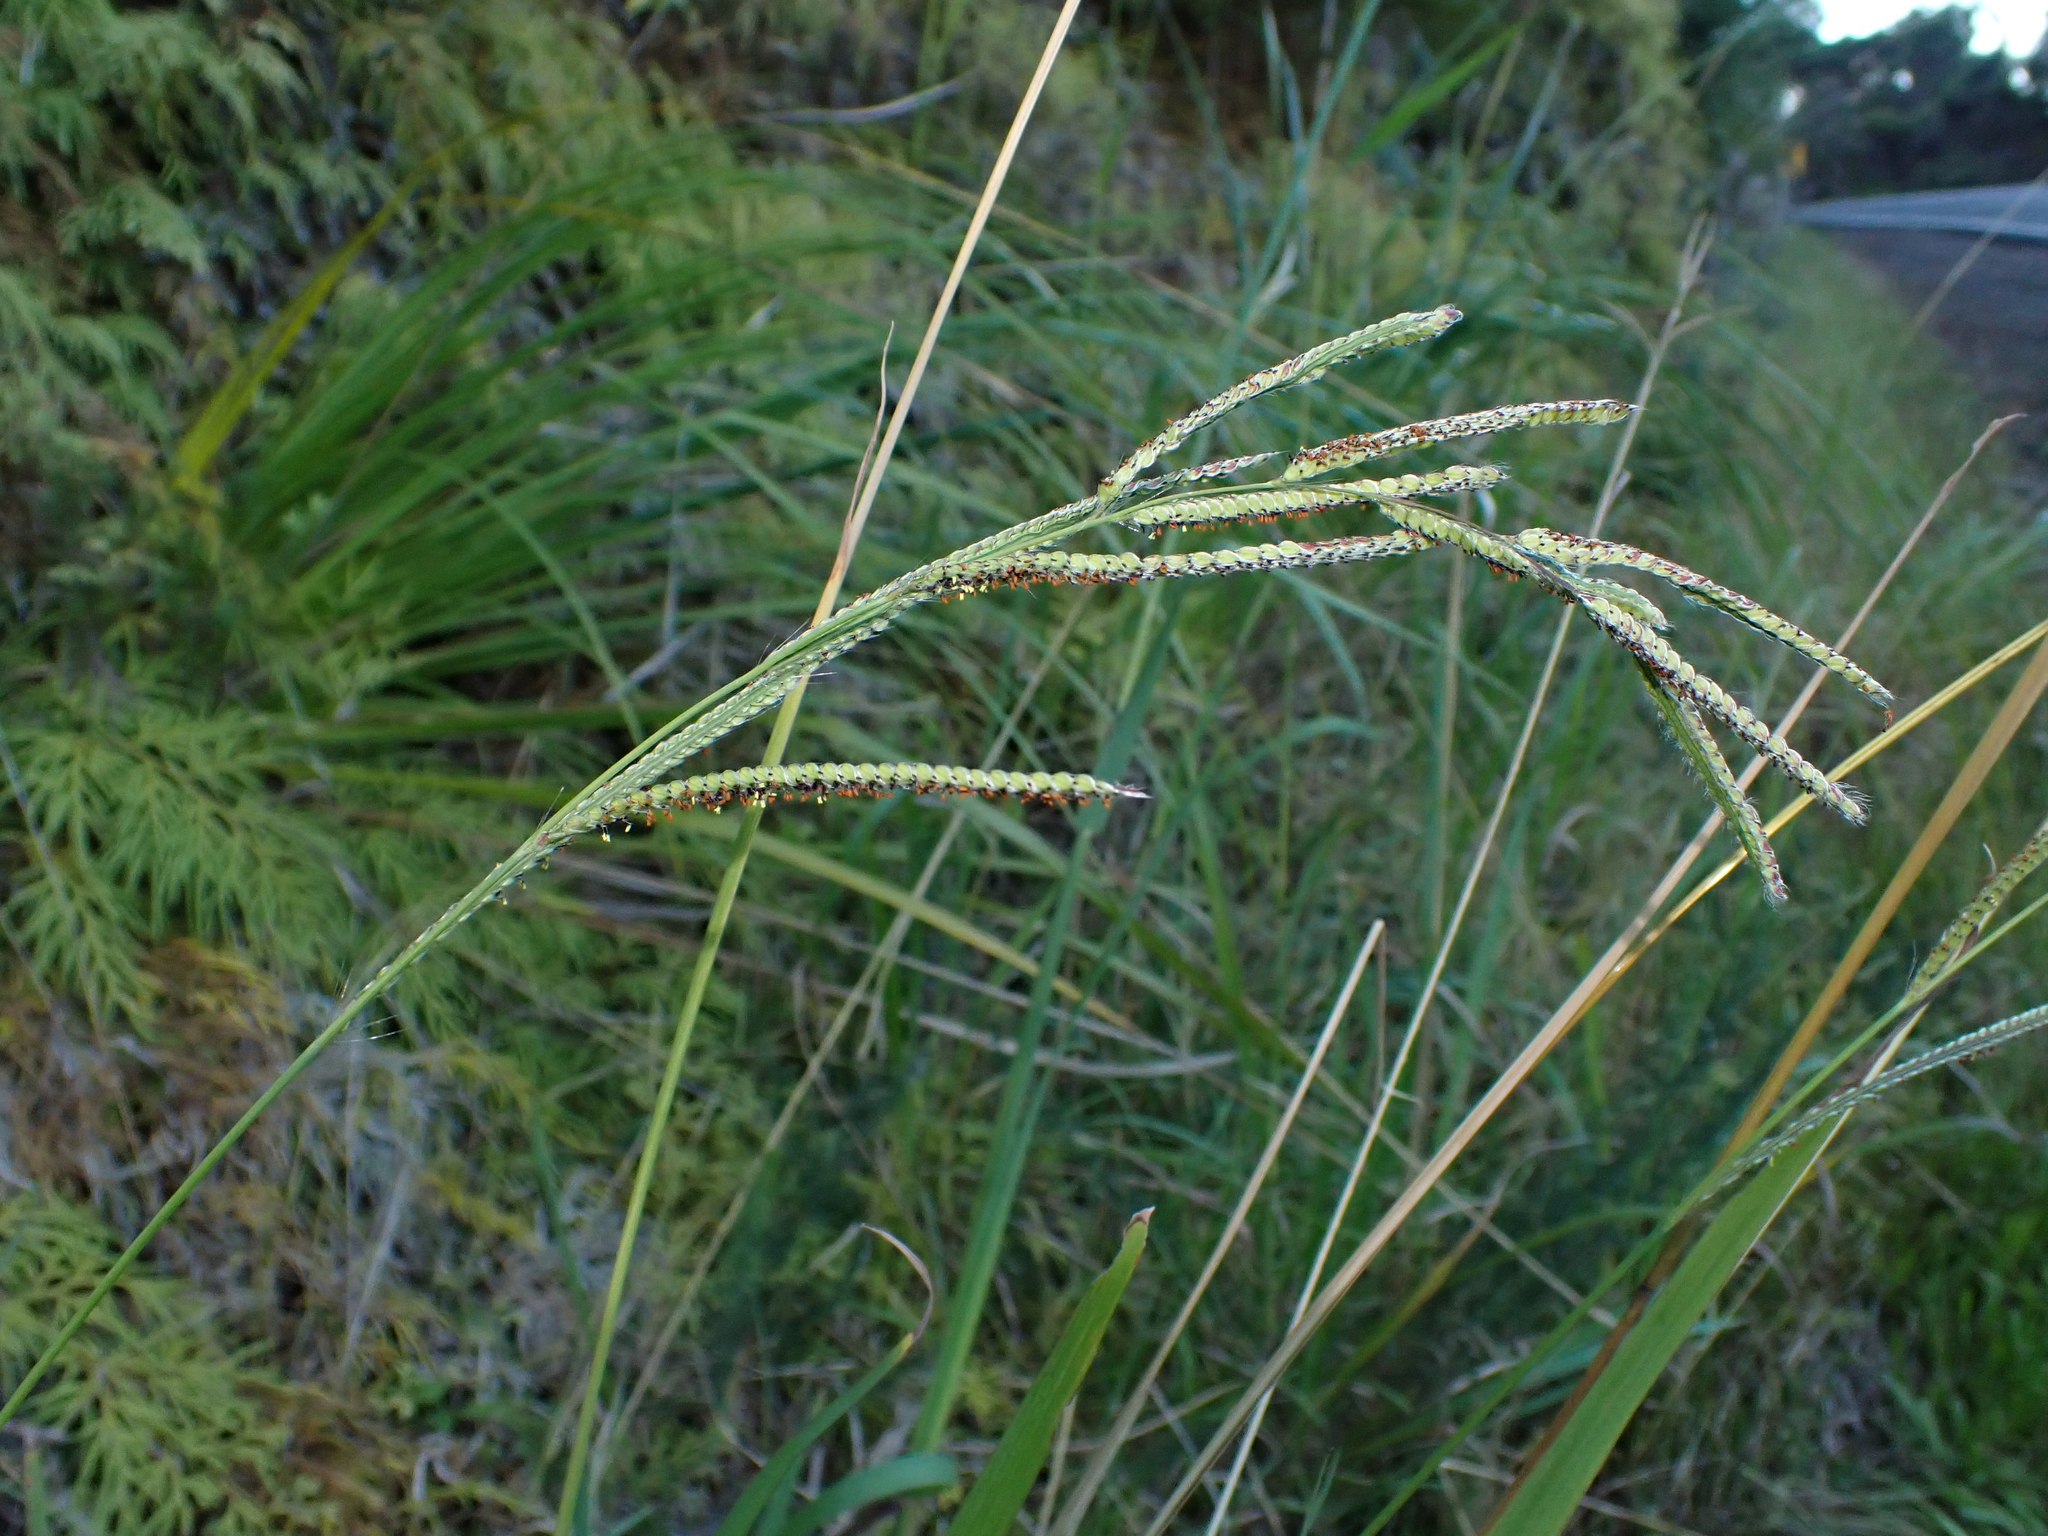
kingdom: Plantae
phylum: Tracheophyta
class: Liliopsida
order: Poales
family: Poaceae
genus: Paspalum
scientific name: Paspalum urvillei
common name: Vasey's grass
